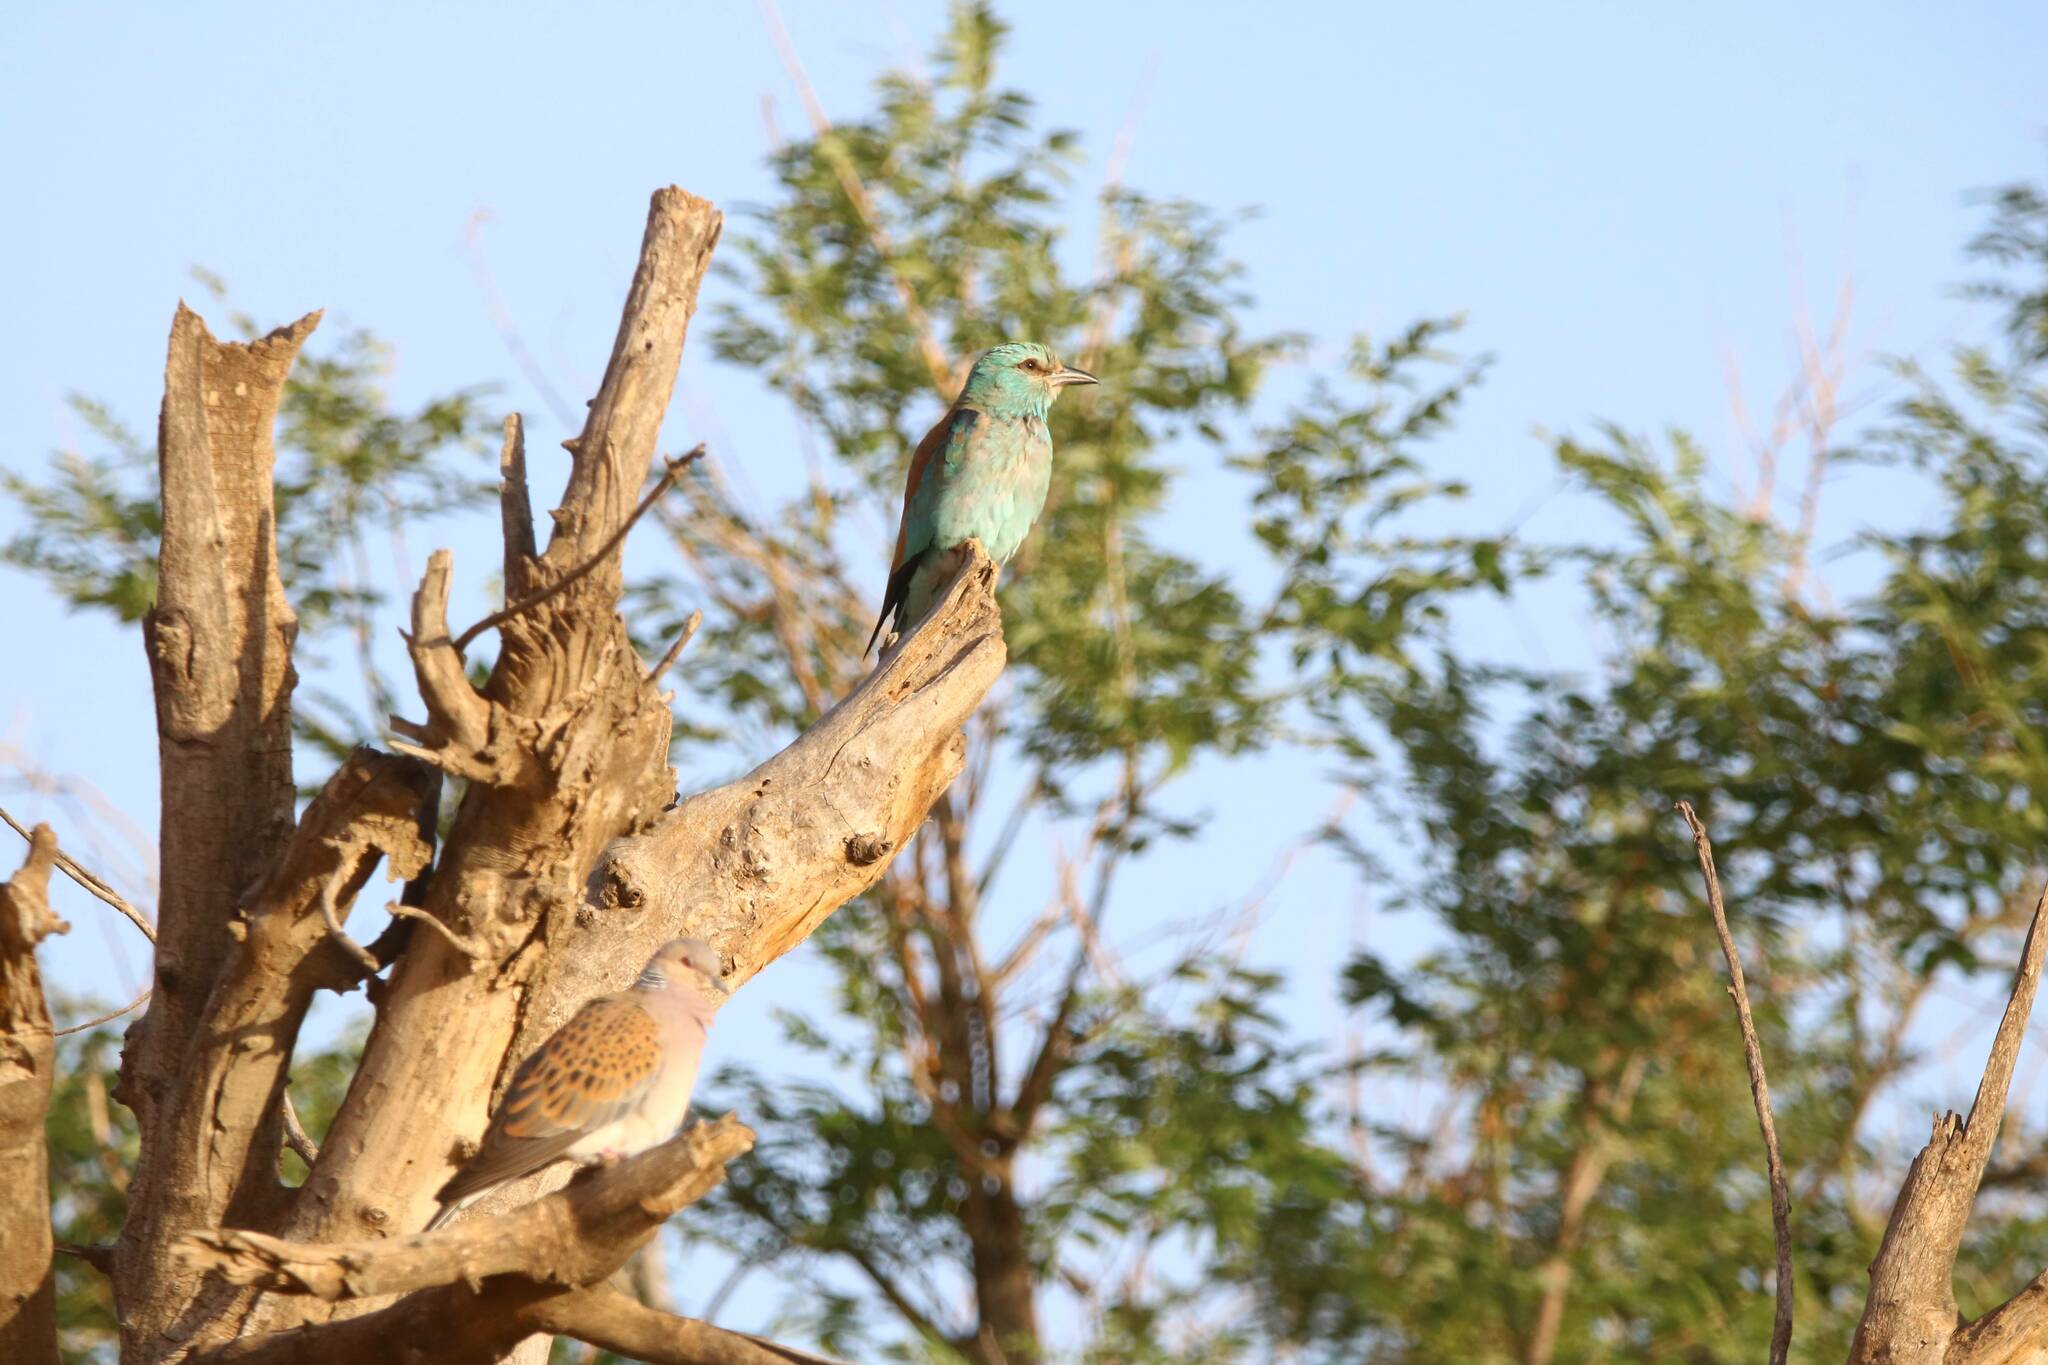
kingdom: Animalia
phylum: Chordata
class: Aves
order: Coraciiformes
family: Coraciidae
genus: Coracias
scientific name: Coracias garrulus
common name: European roller
